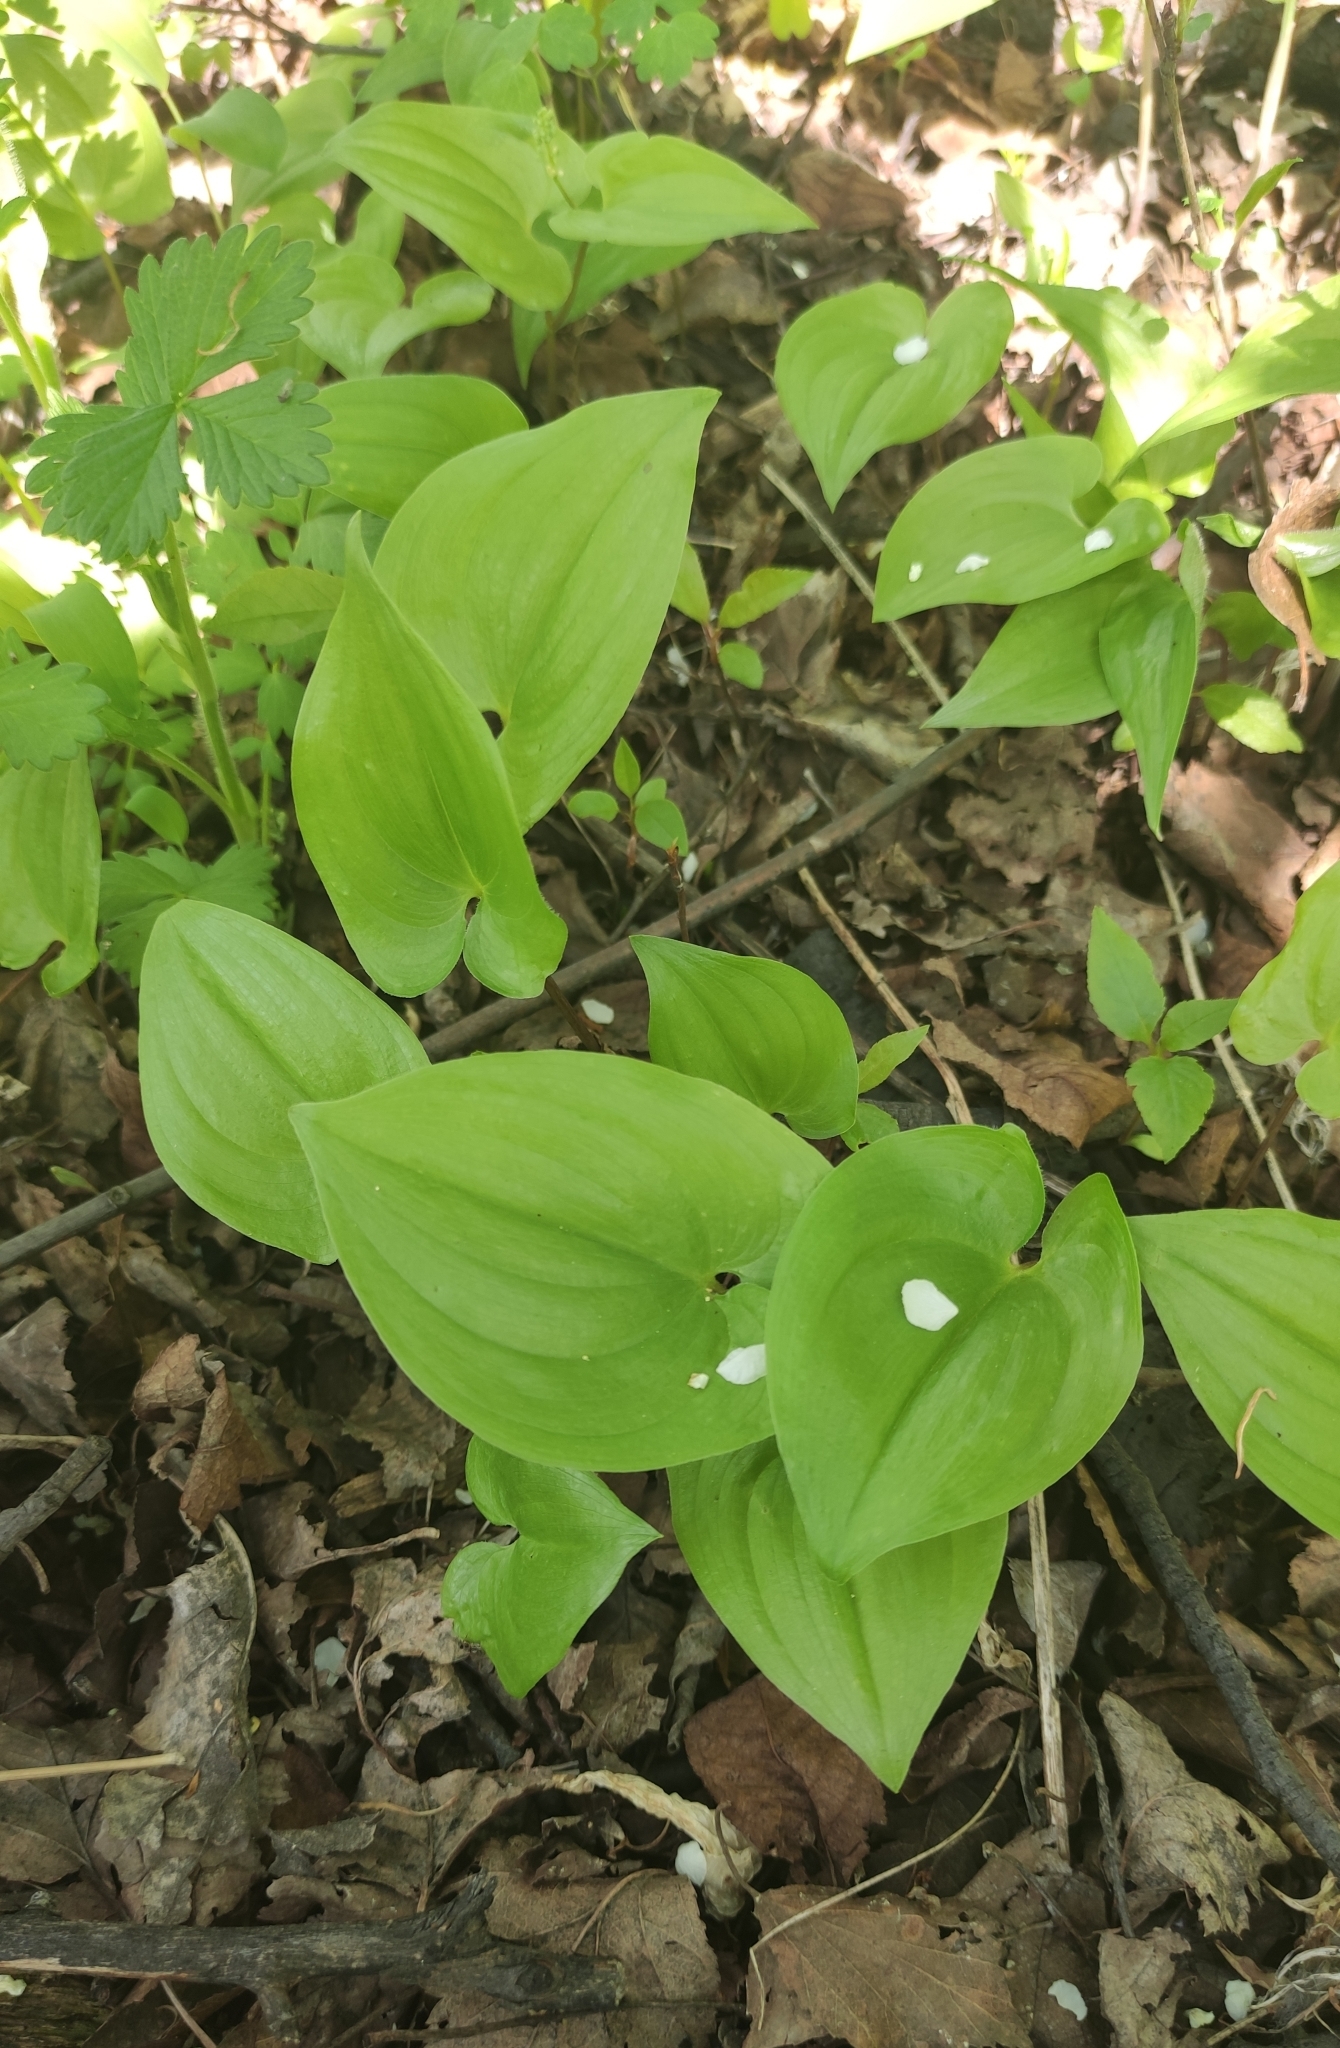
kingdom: Plantae
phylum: Tracheophyta
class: Liliopsida
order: Asparagales
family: Asparagaceae
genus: Maianthemum
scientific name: Maianthemum bifolium
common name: May lily
